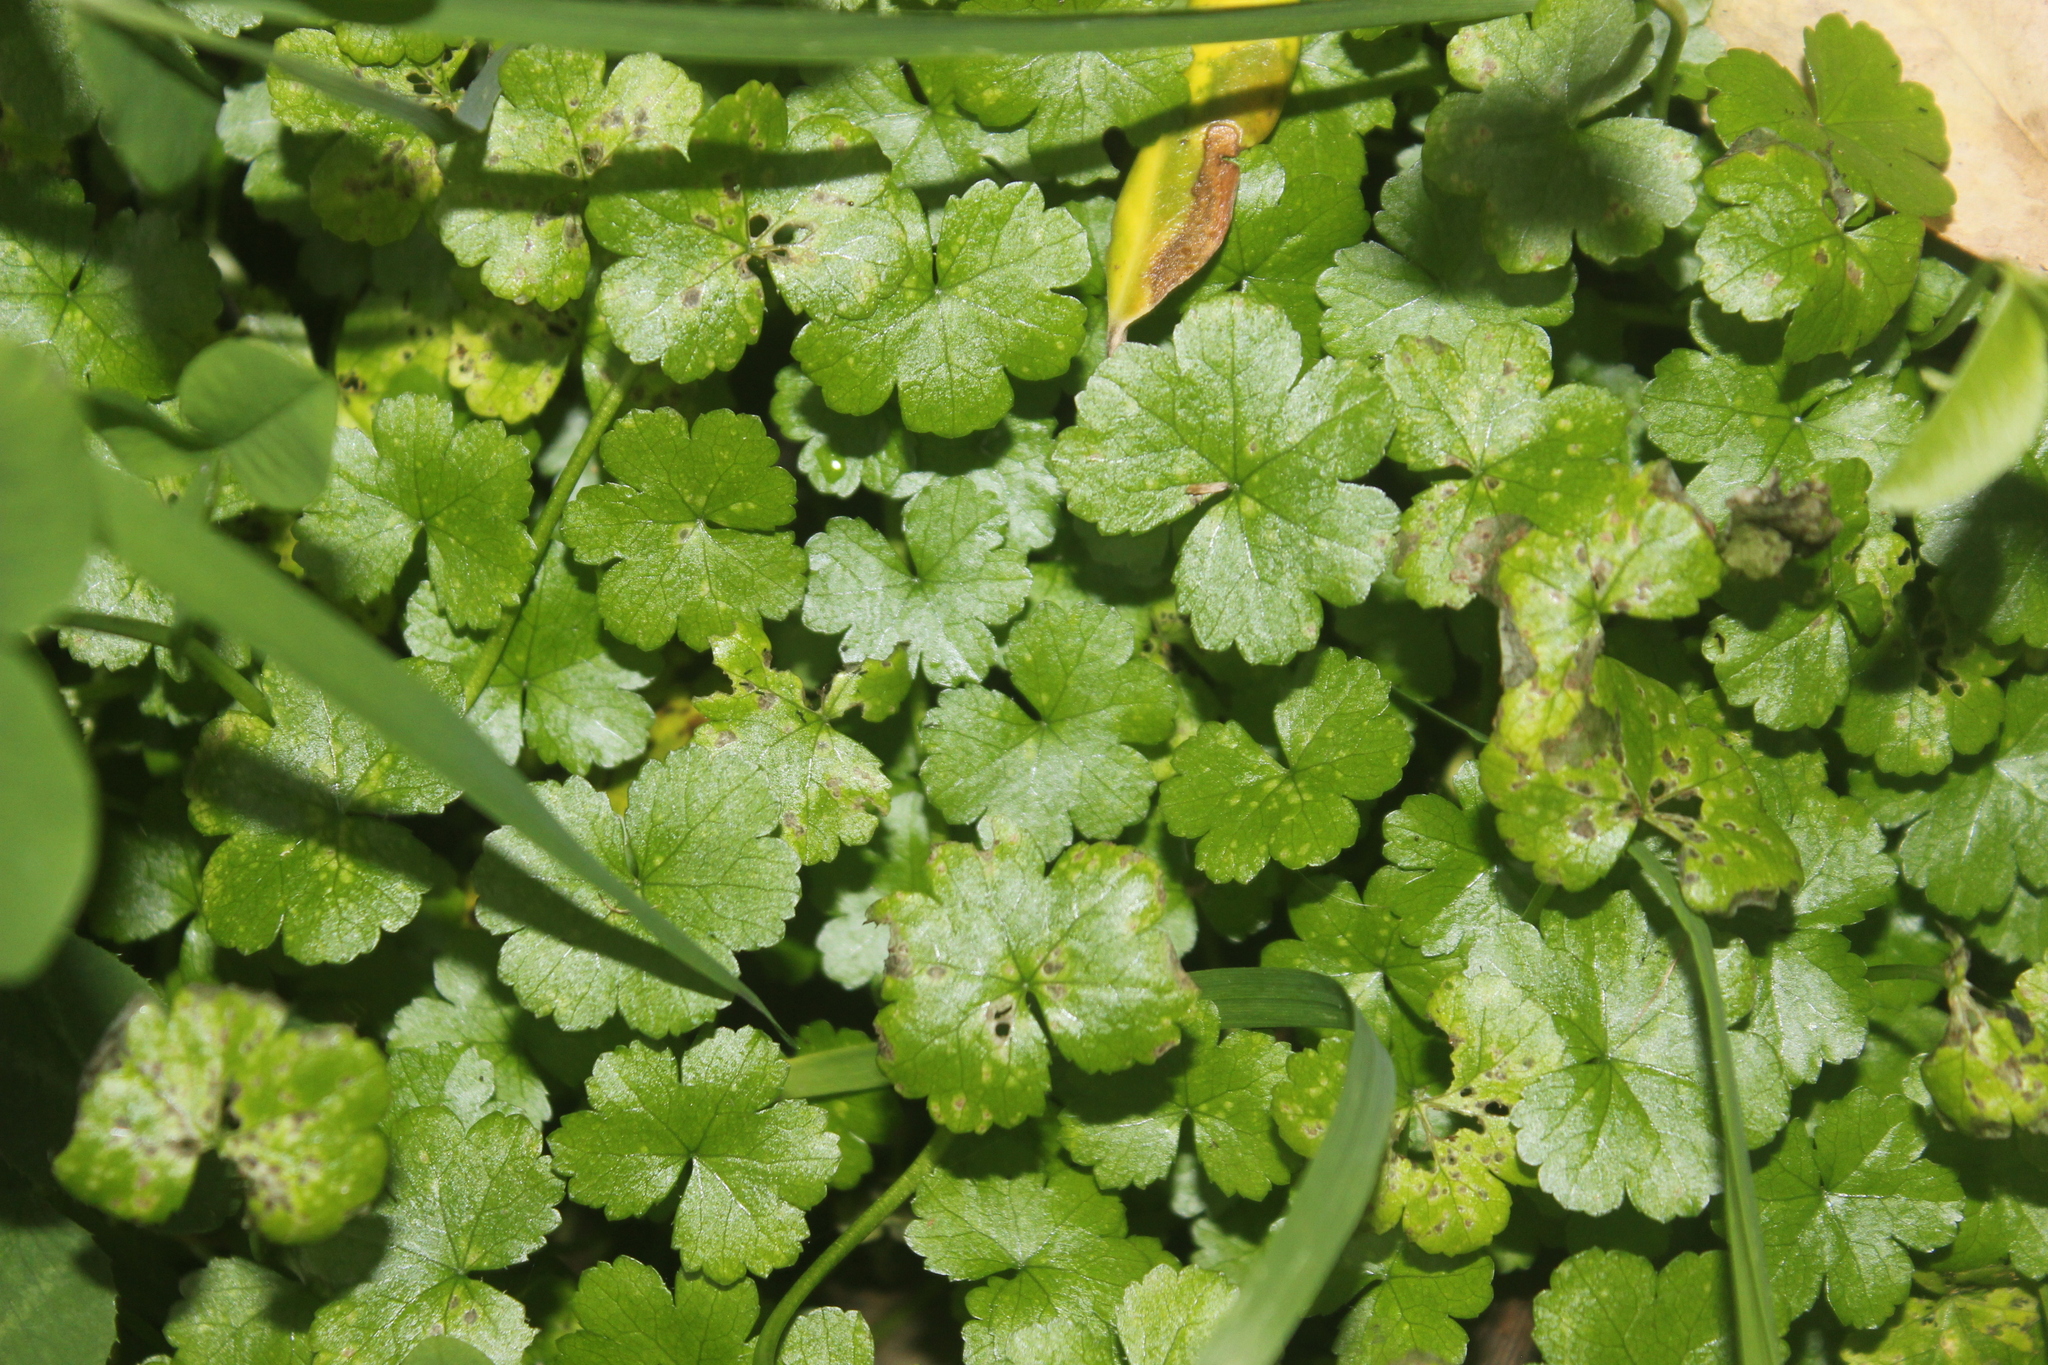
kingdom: Plantae
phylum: Tracheophyta
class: Magnoliopsida
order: Apiales
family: Araliaceae
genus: Hydrocotyle
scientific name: Hydrocotyle heteromeria
